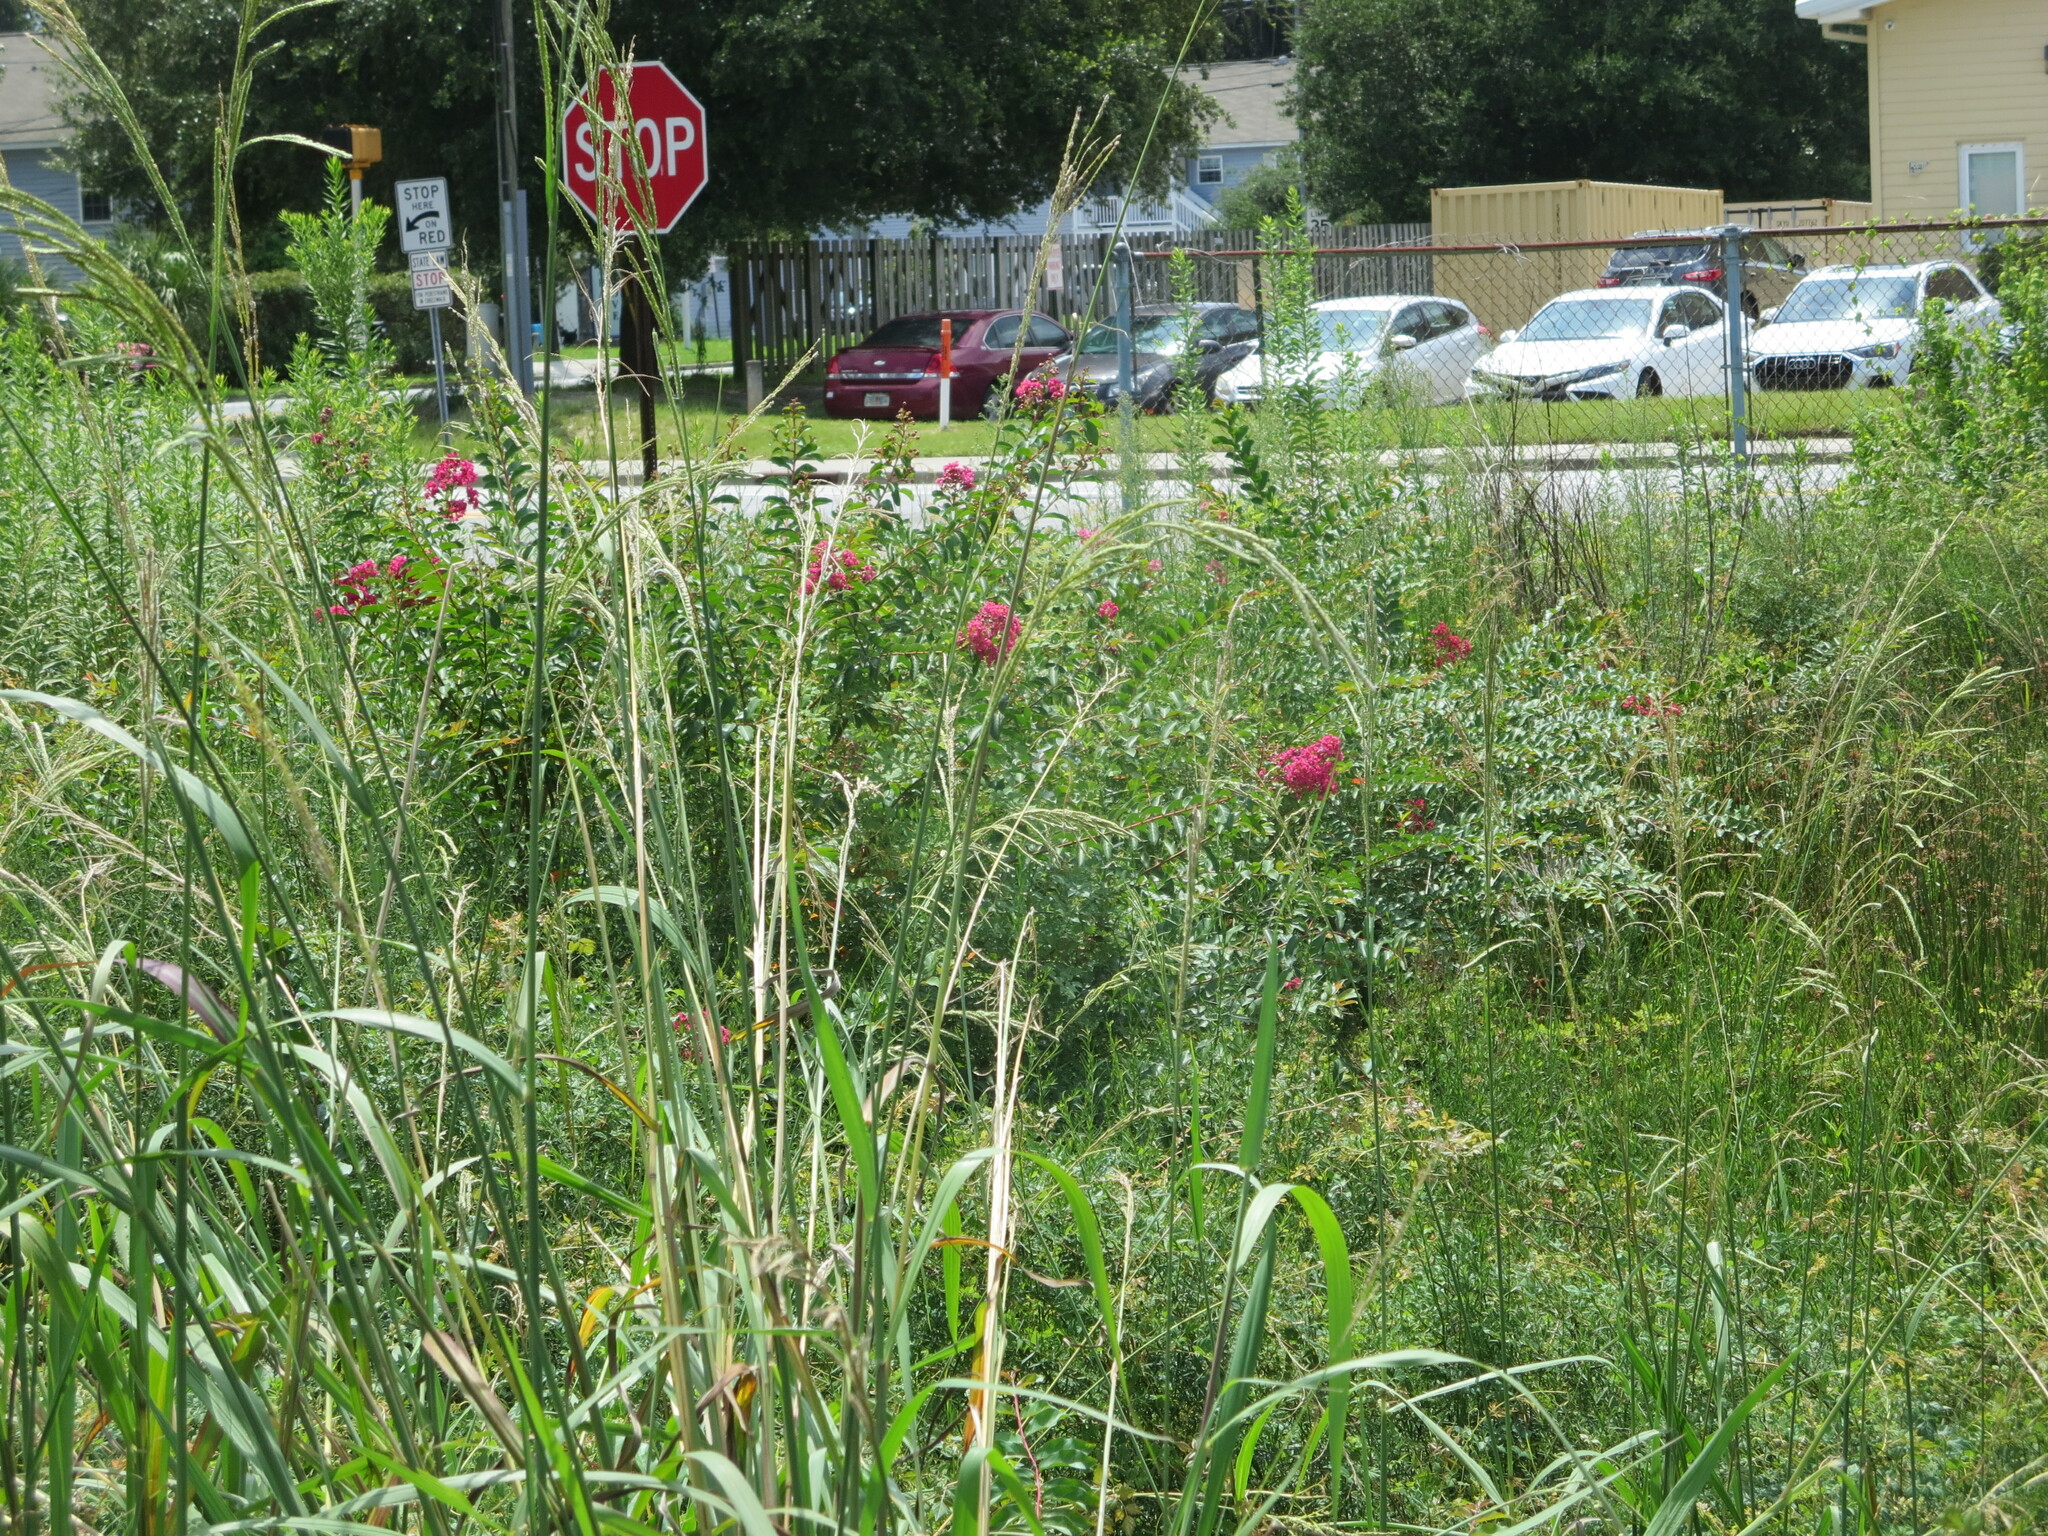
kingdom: Plantae
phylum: Tracheophyta
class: Magnoliopsida
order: Myrtales
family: Lythraceae
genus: Lagerstroemia
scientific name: Lagerstroemia indica
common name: Crape-myrtle
